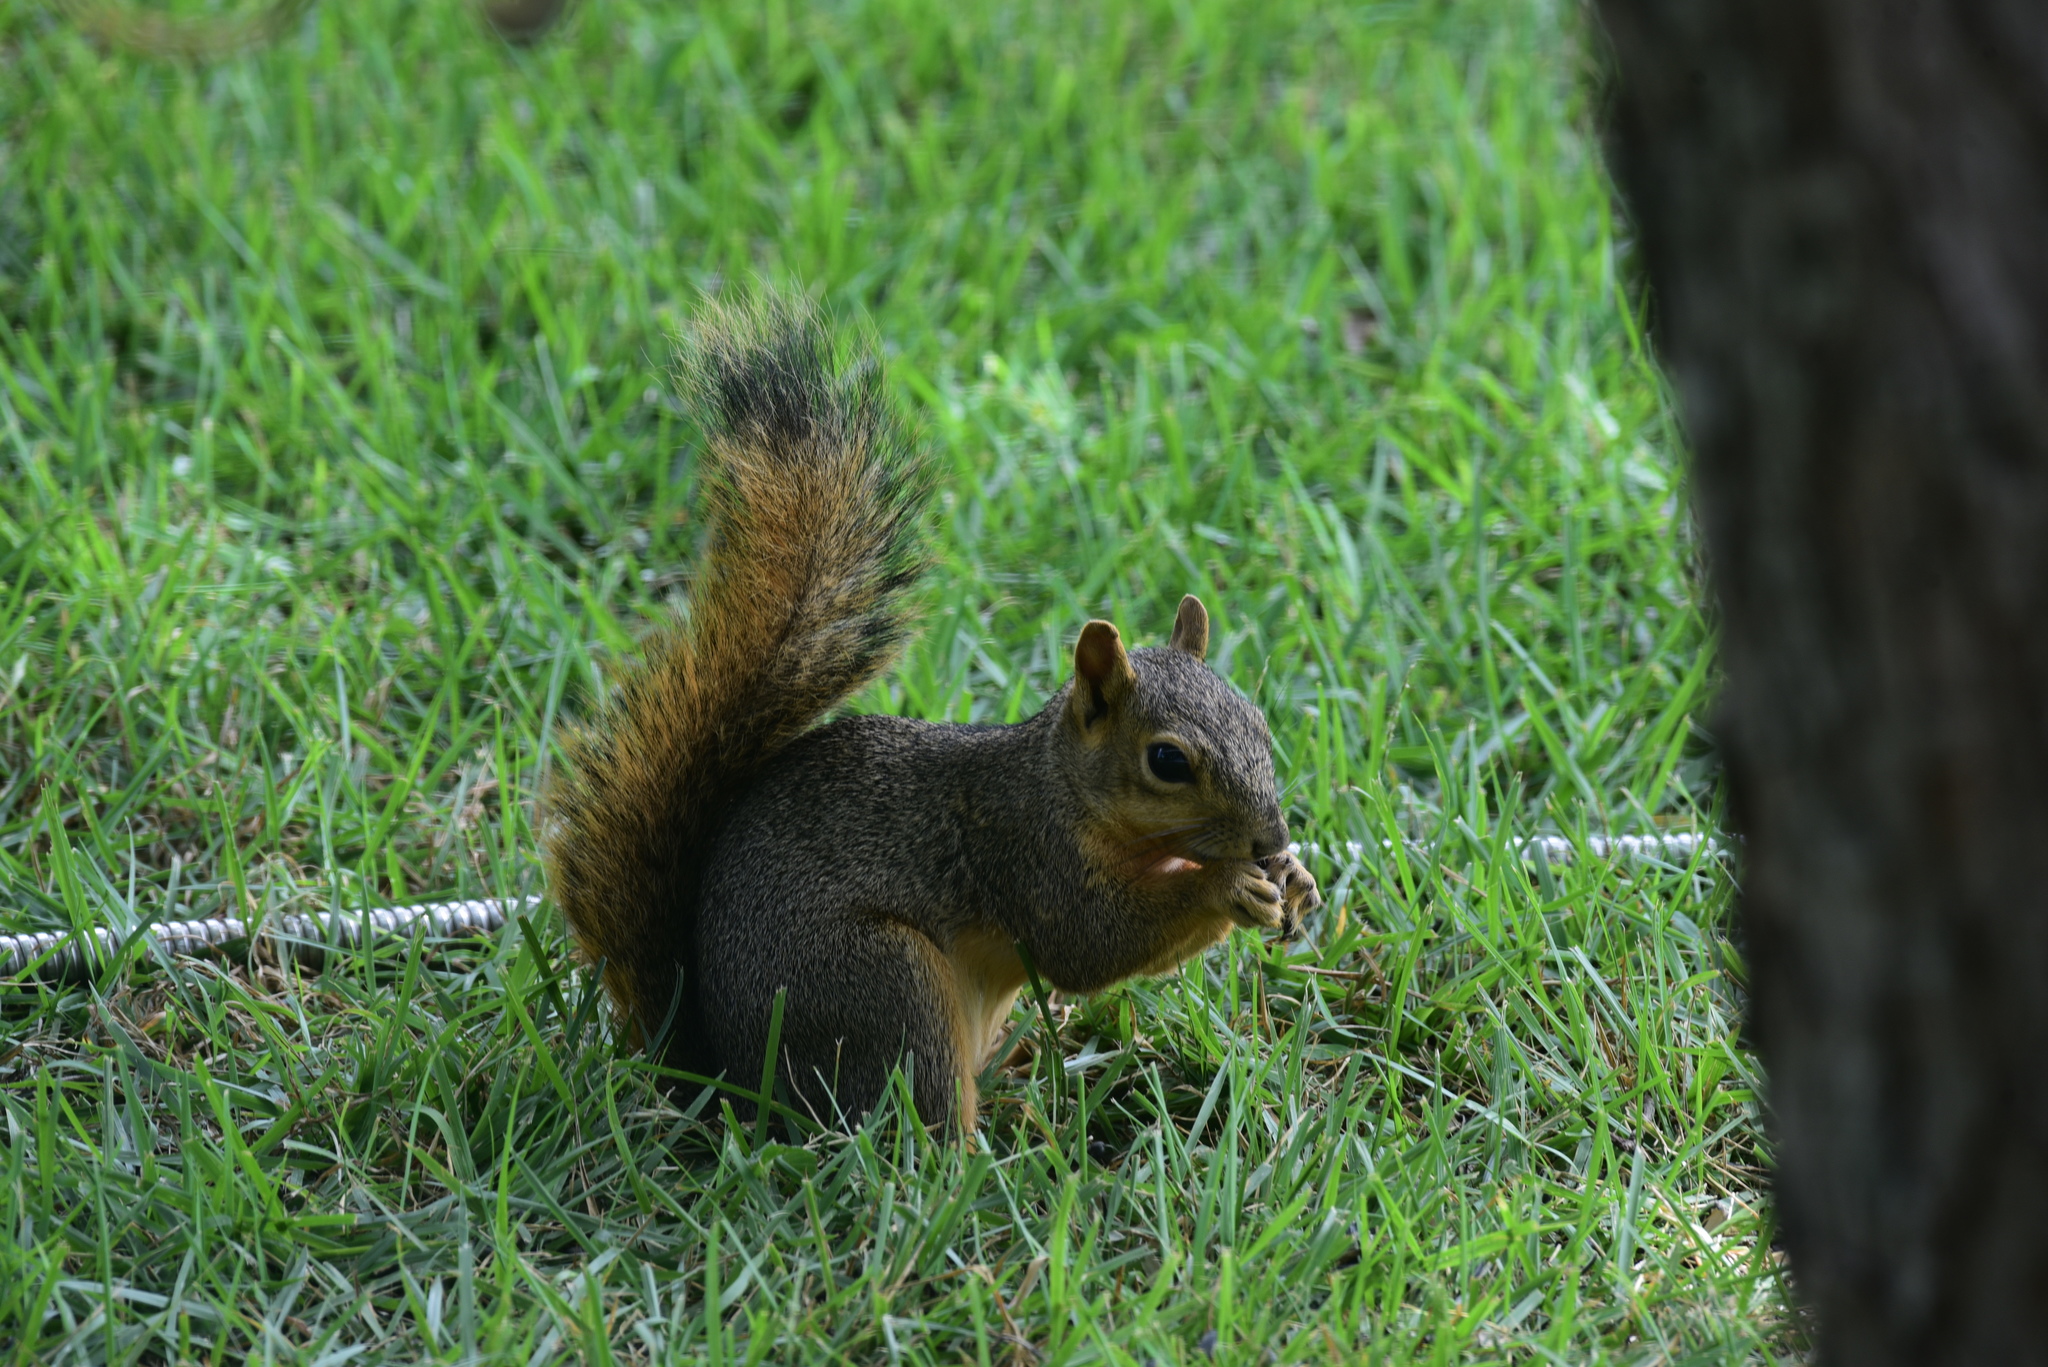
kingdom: Animalia
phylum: Chordata
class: Mammalia
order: Rodentia
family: Sciuridae
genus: Sciurus
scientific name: Sciurus niger
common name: Fox squirrel
